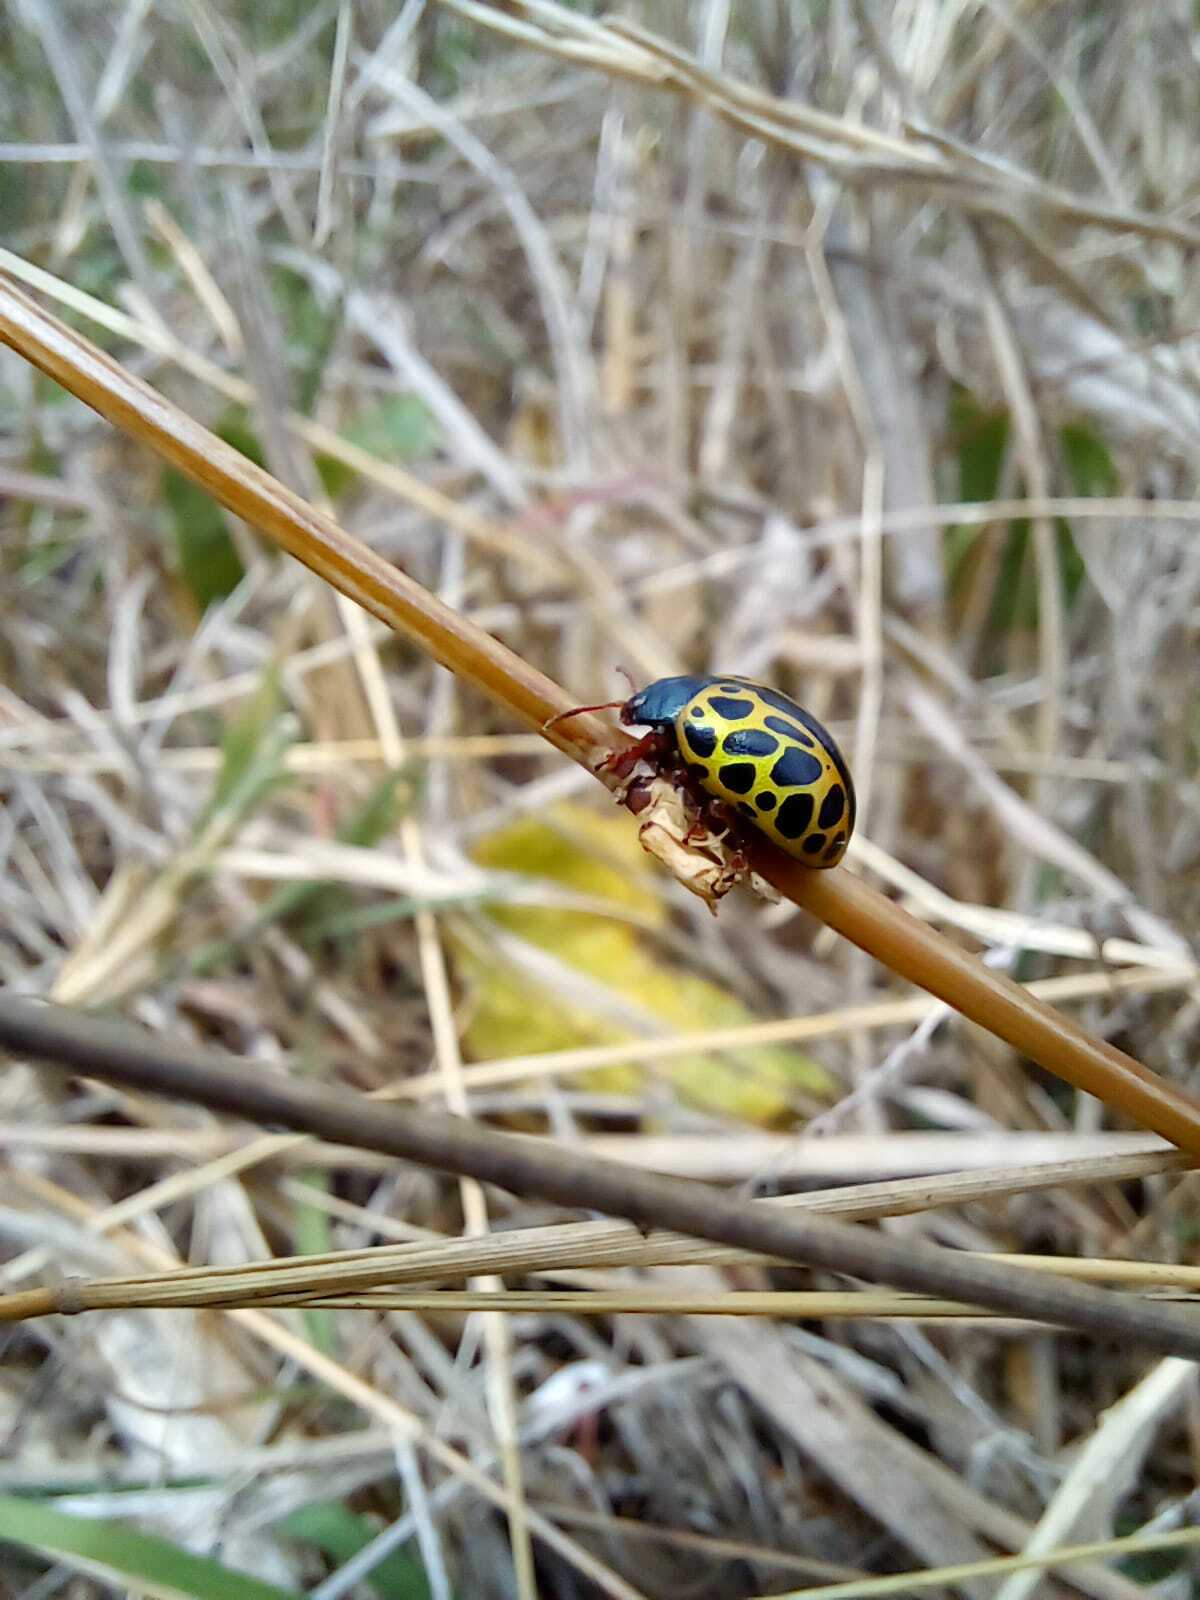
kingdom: Animalia
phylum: Arthropoda
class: Insecta
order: Coleoptera
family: Chrysomelidae
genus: Calligrapha
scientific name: Calligrapha polyspila
